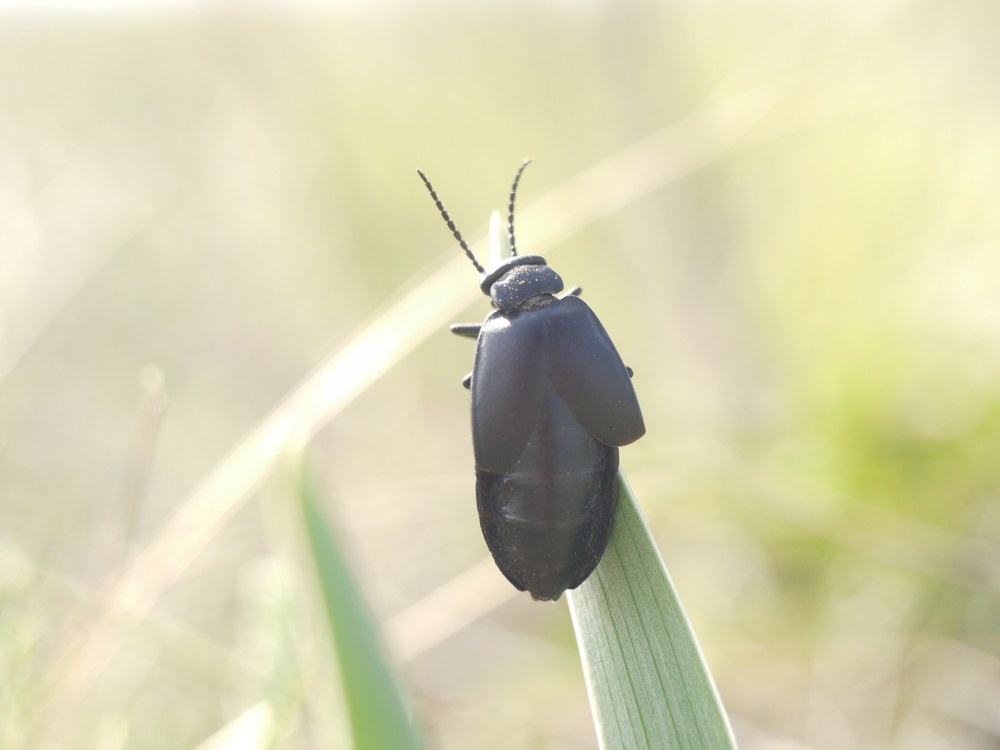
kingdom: Animalia
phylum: Arthropoda
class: Insecta
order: Coleoptera
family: Meloidae
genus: Meloe
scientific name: Meloe uralensis
